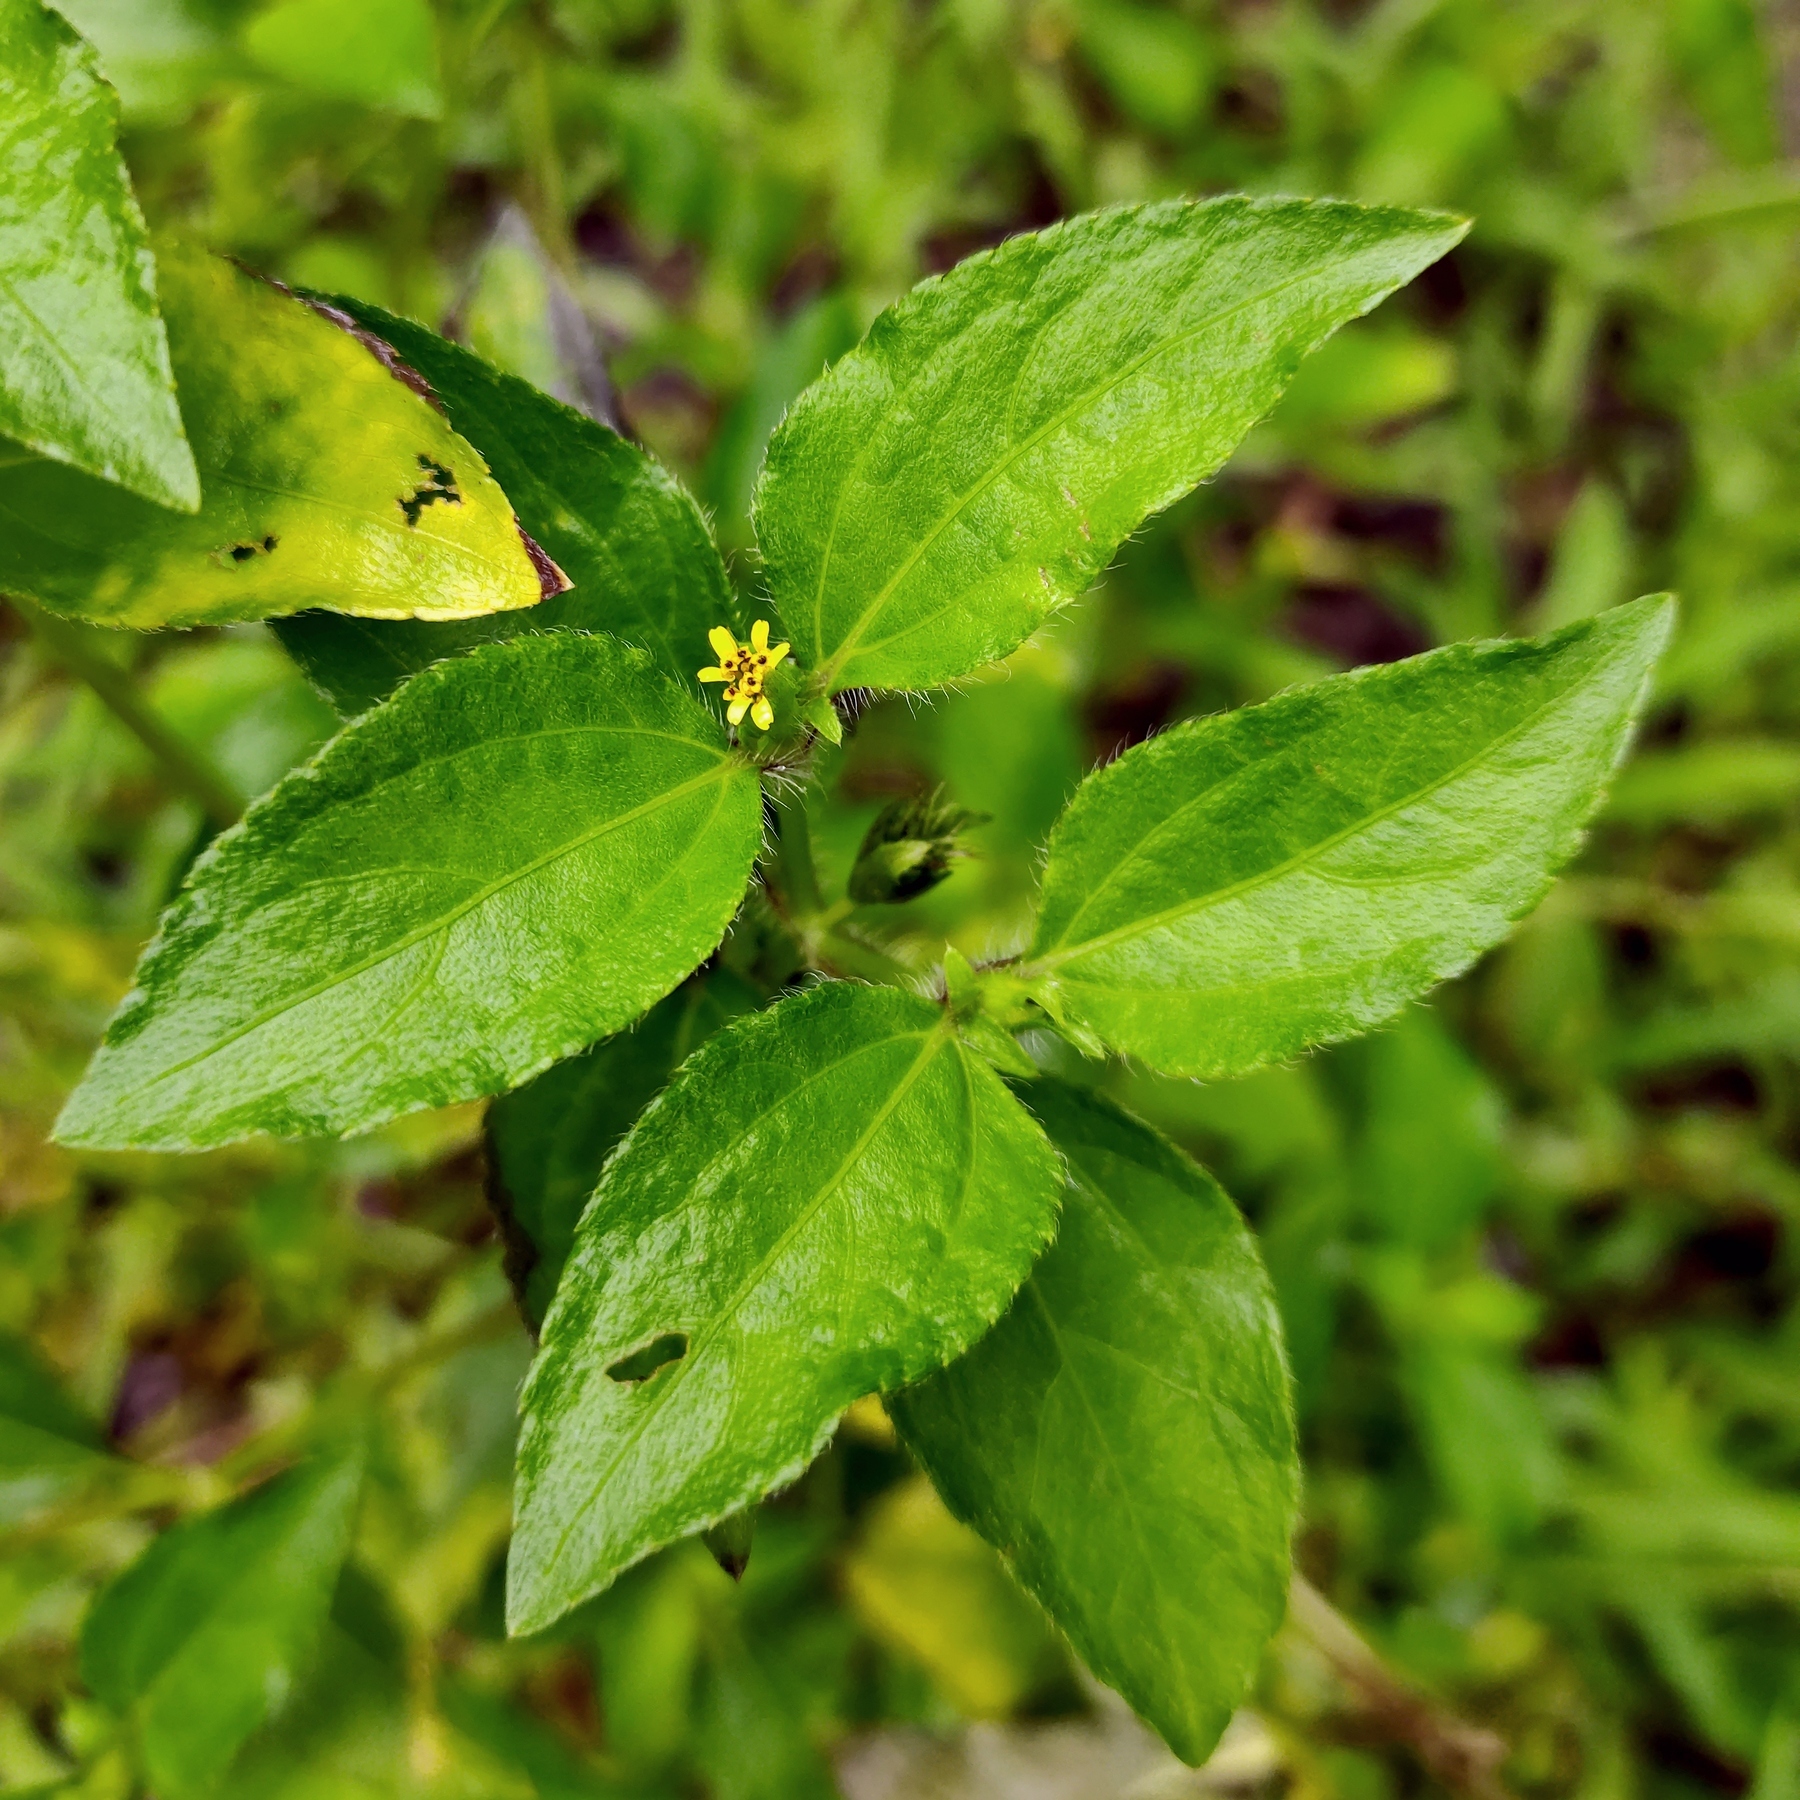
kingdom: Plantae
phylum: Tracheophyta
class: Magnoliopsida
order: Asterales
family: Asteraceae
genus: Synedrella
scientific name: Synedrella nodiflora
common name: Nodeweed
